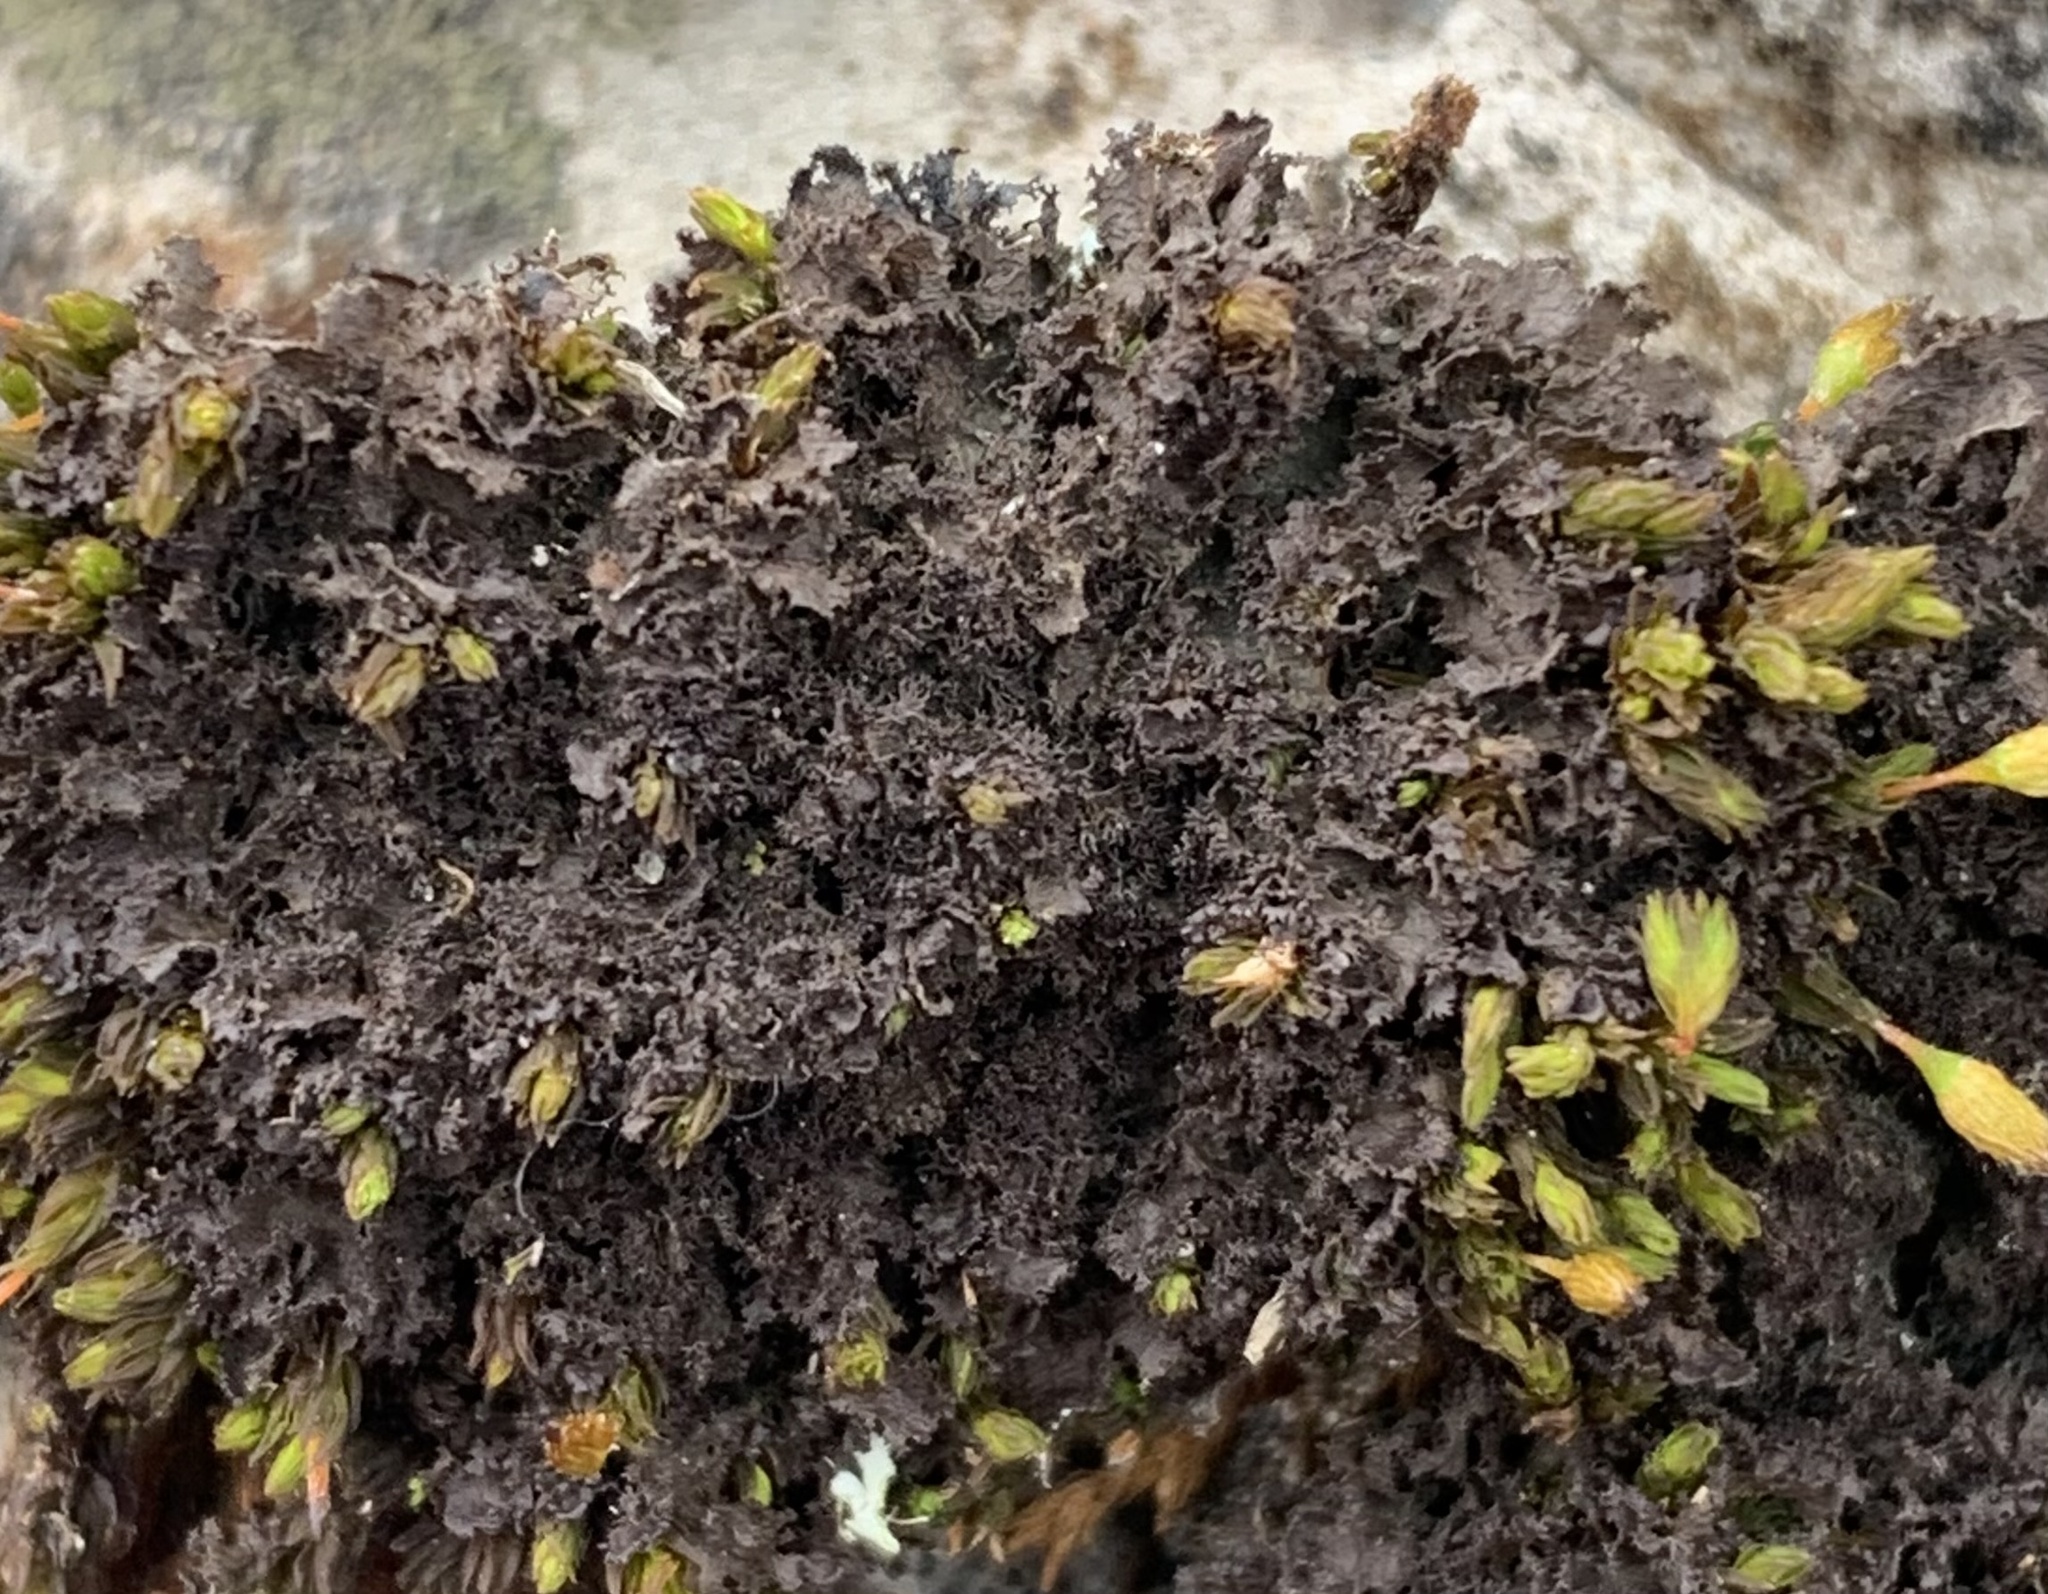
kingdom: Fungi
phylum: Ascomycota
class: Lecanoromycetes
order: Peltigerales
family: Collemataceae
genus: Scytinium
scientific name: Scytinium lichenoides
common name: Tattered jellyskin lichen
